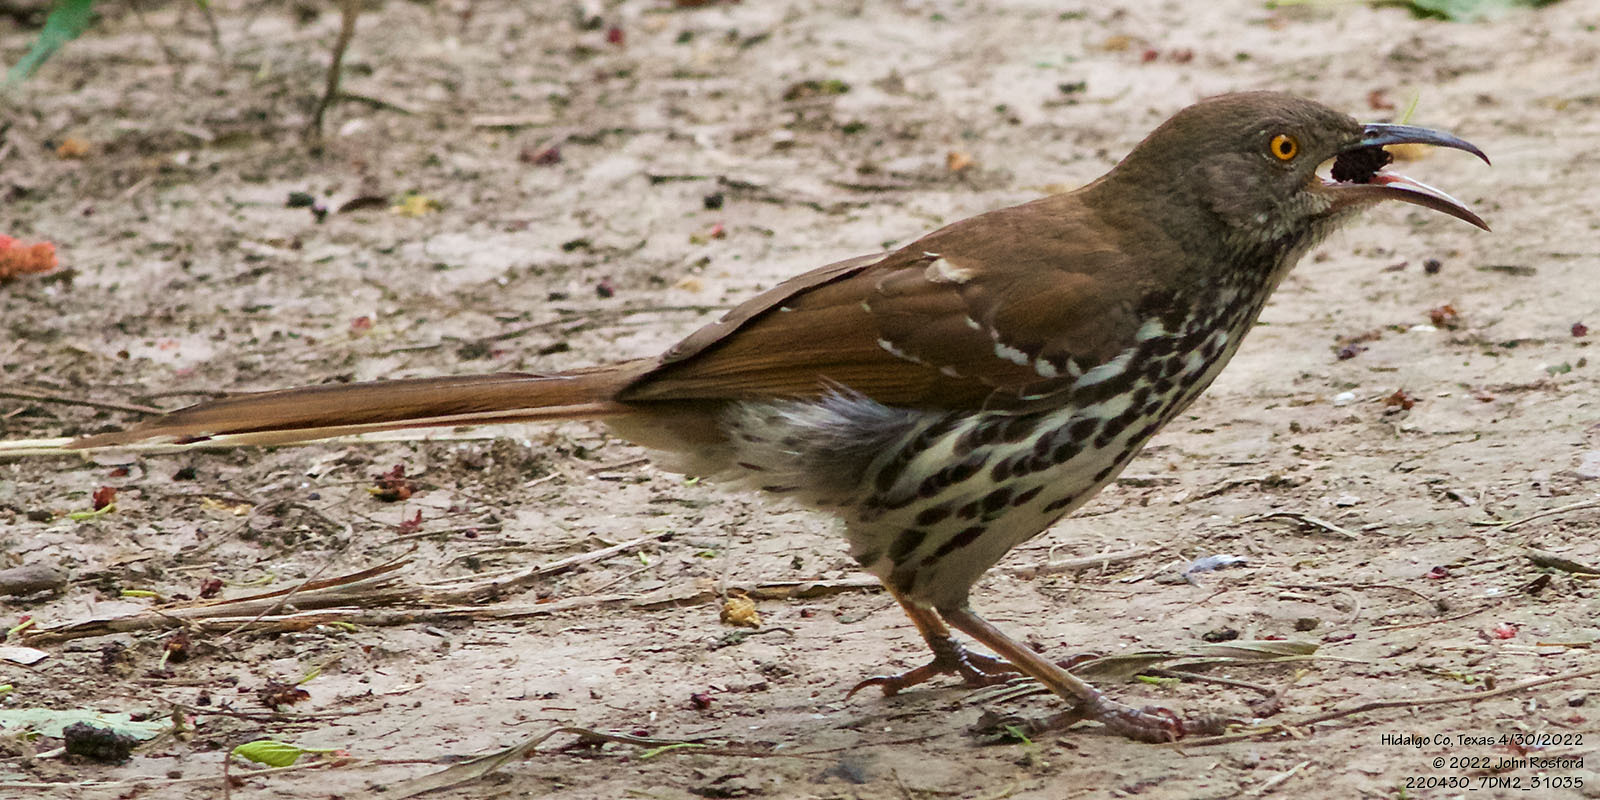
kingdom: Animalia
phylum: Chordata
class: Aves
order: Passeriformes
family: Mimidae
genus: Toxostoma
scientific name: Toxostoma longirostre
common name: Long-billed thrasher
